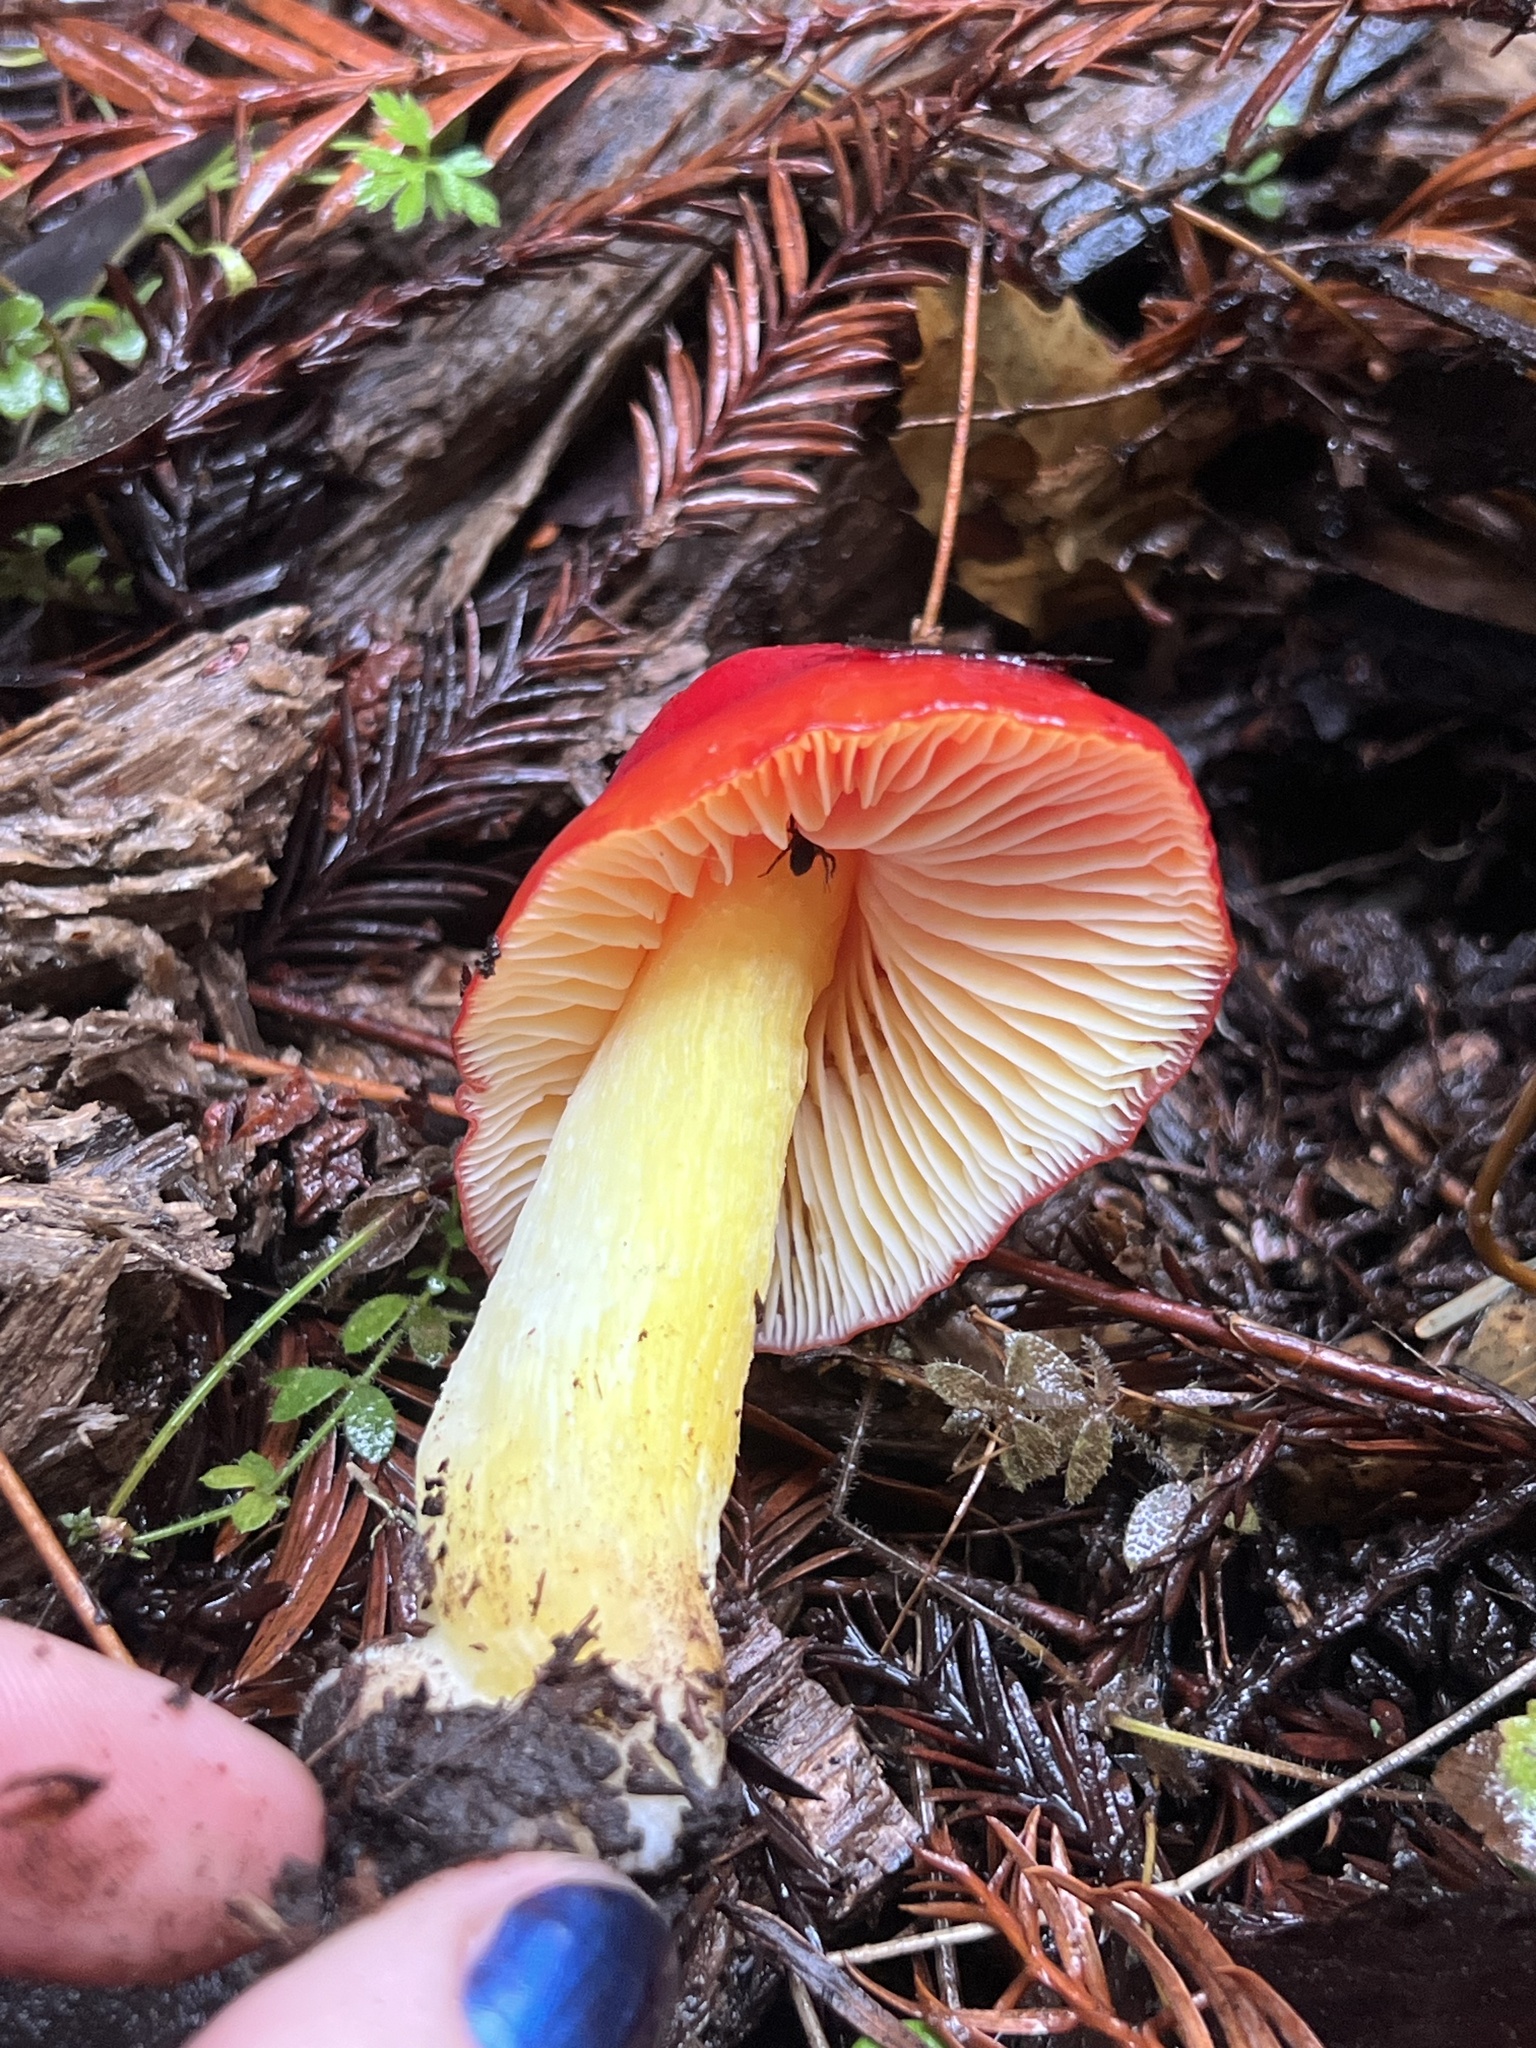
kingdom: Fungi
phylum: Basidiomycota
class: Agaricomycetes
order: Agaricales
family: Hygrophoraceae
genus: Hygrocybe
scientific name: Hygrocybe laetissima
